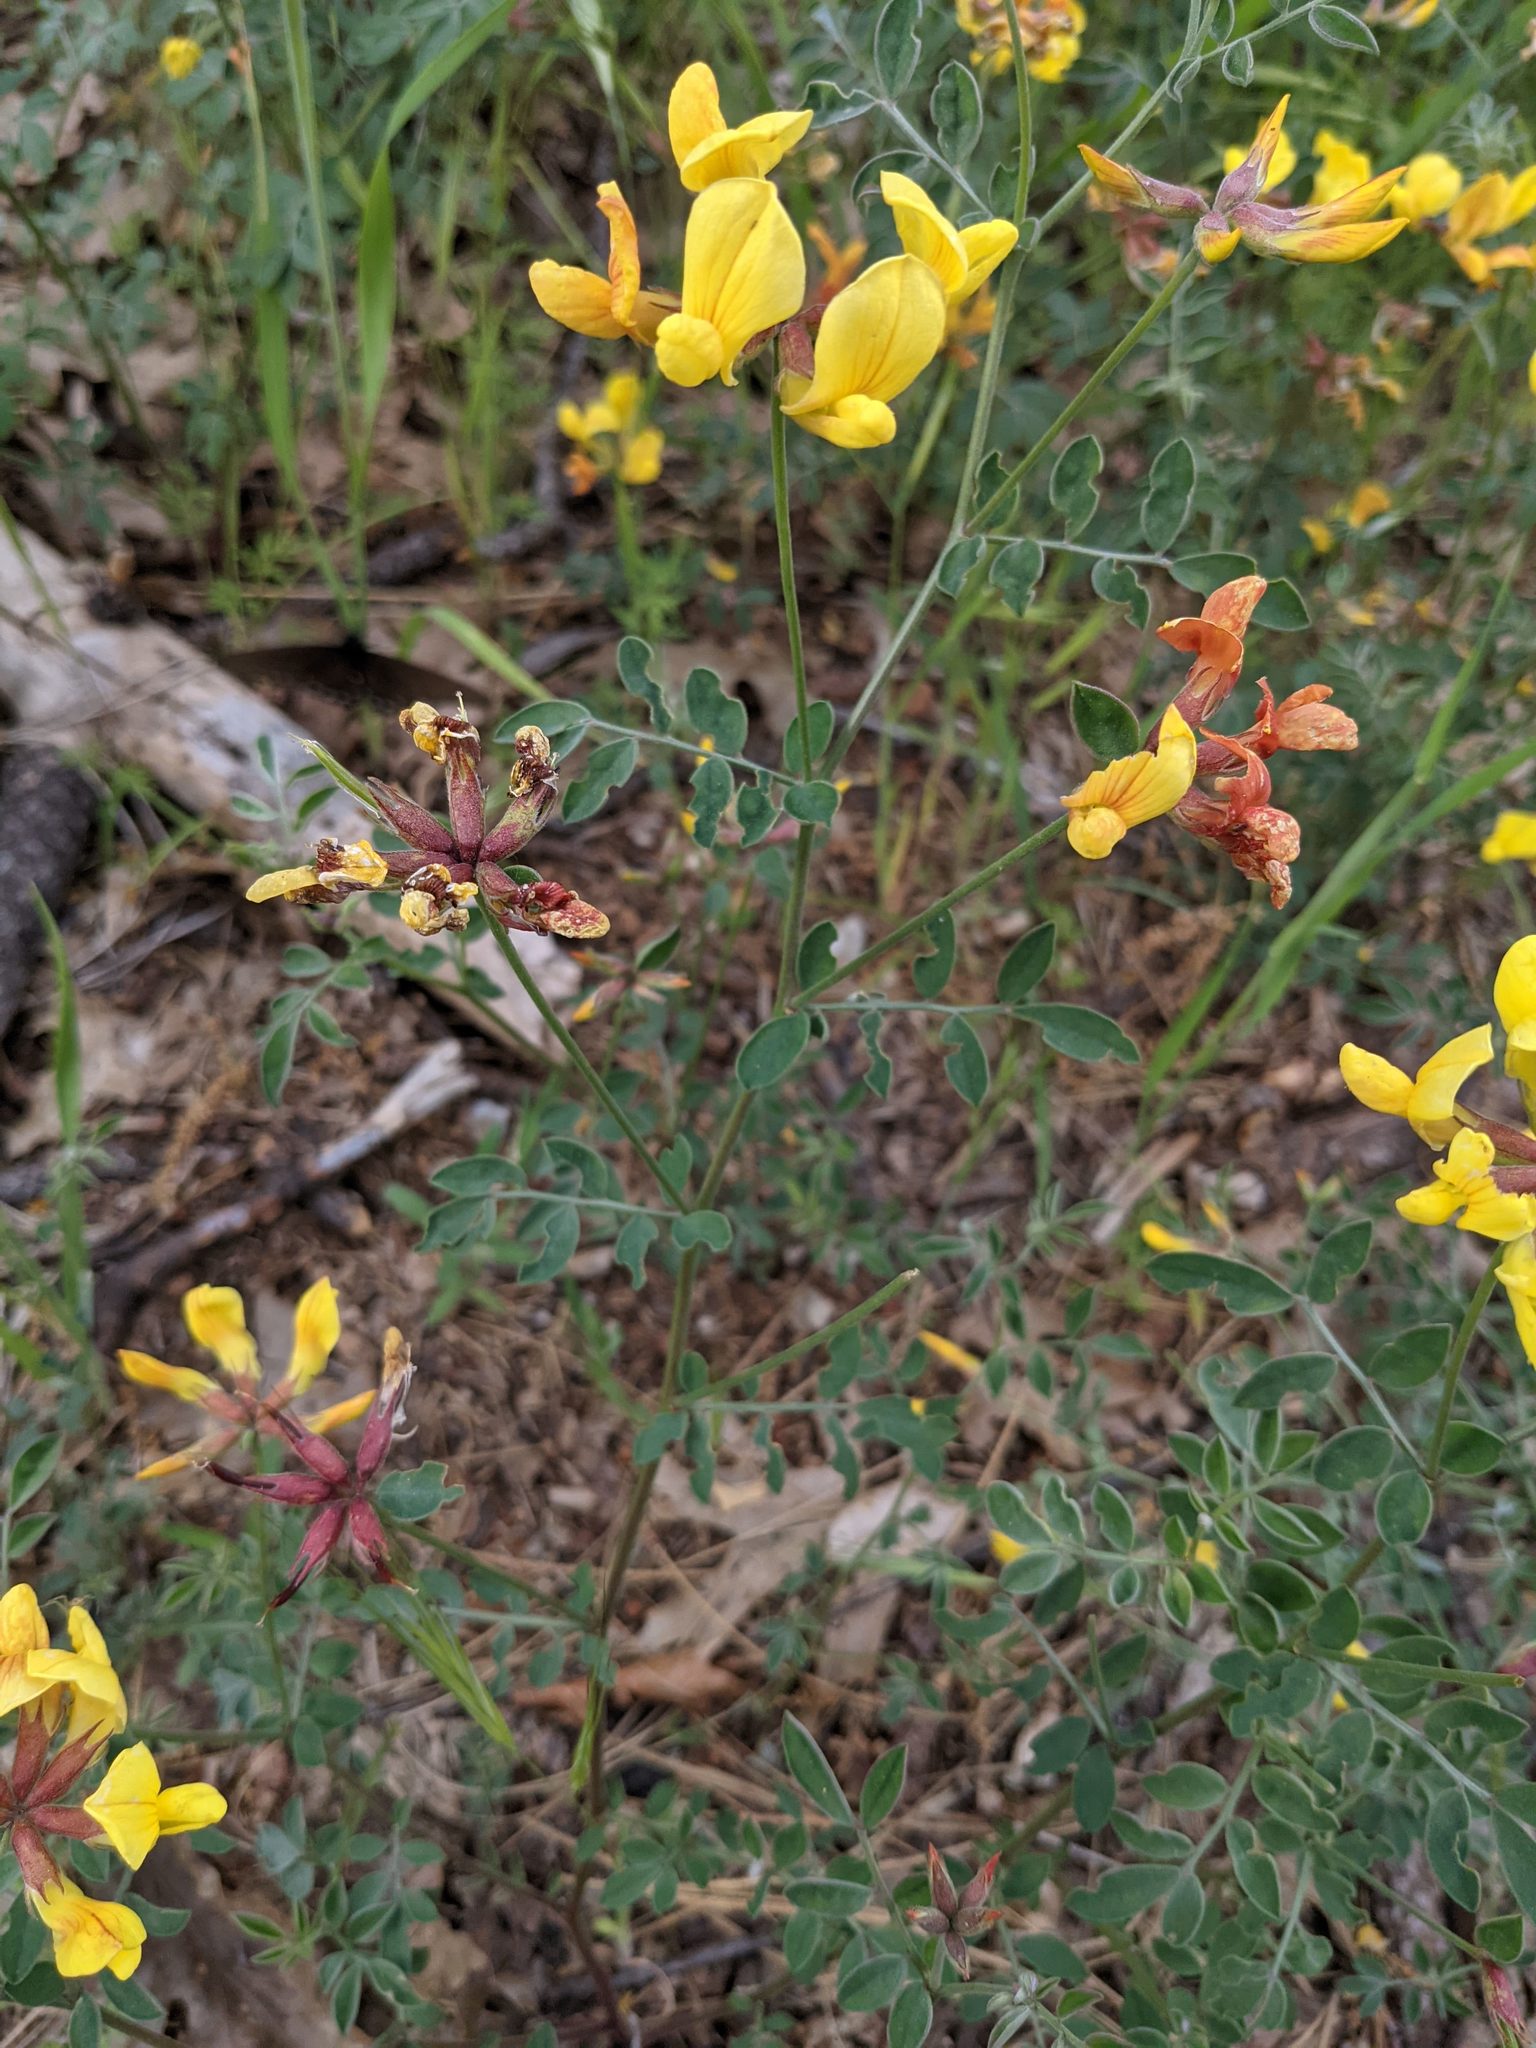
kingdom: Plantae
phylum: Tracheophyta
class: Magnoliopsida
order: Fabales
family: Fabaceae
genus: Acmispon
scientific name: Acmispon grandiflorus
